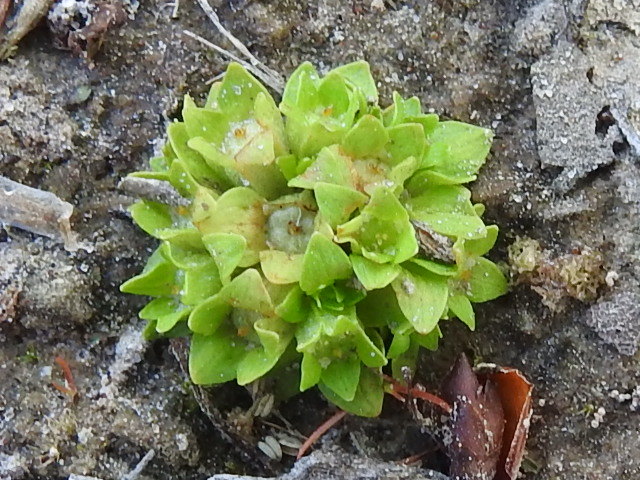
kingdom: Plantae
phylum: Tracheophyta
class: Magnoliopsida
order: Celastrales
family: Parnassiaceae
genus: Lepuropetalon
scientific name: Lepuropetalon spathulatum
